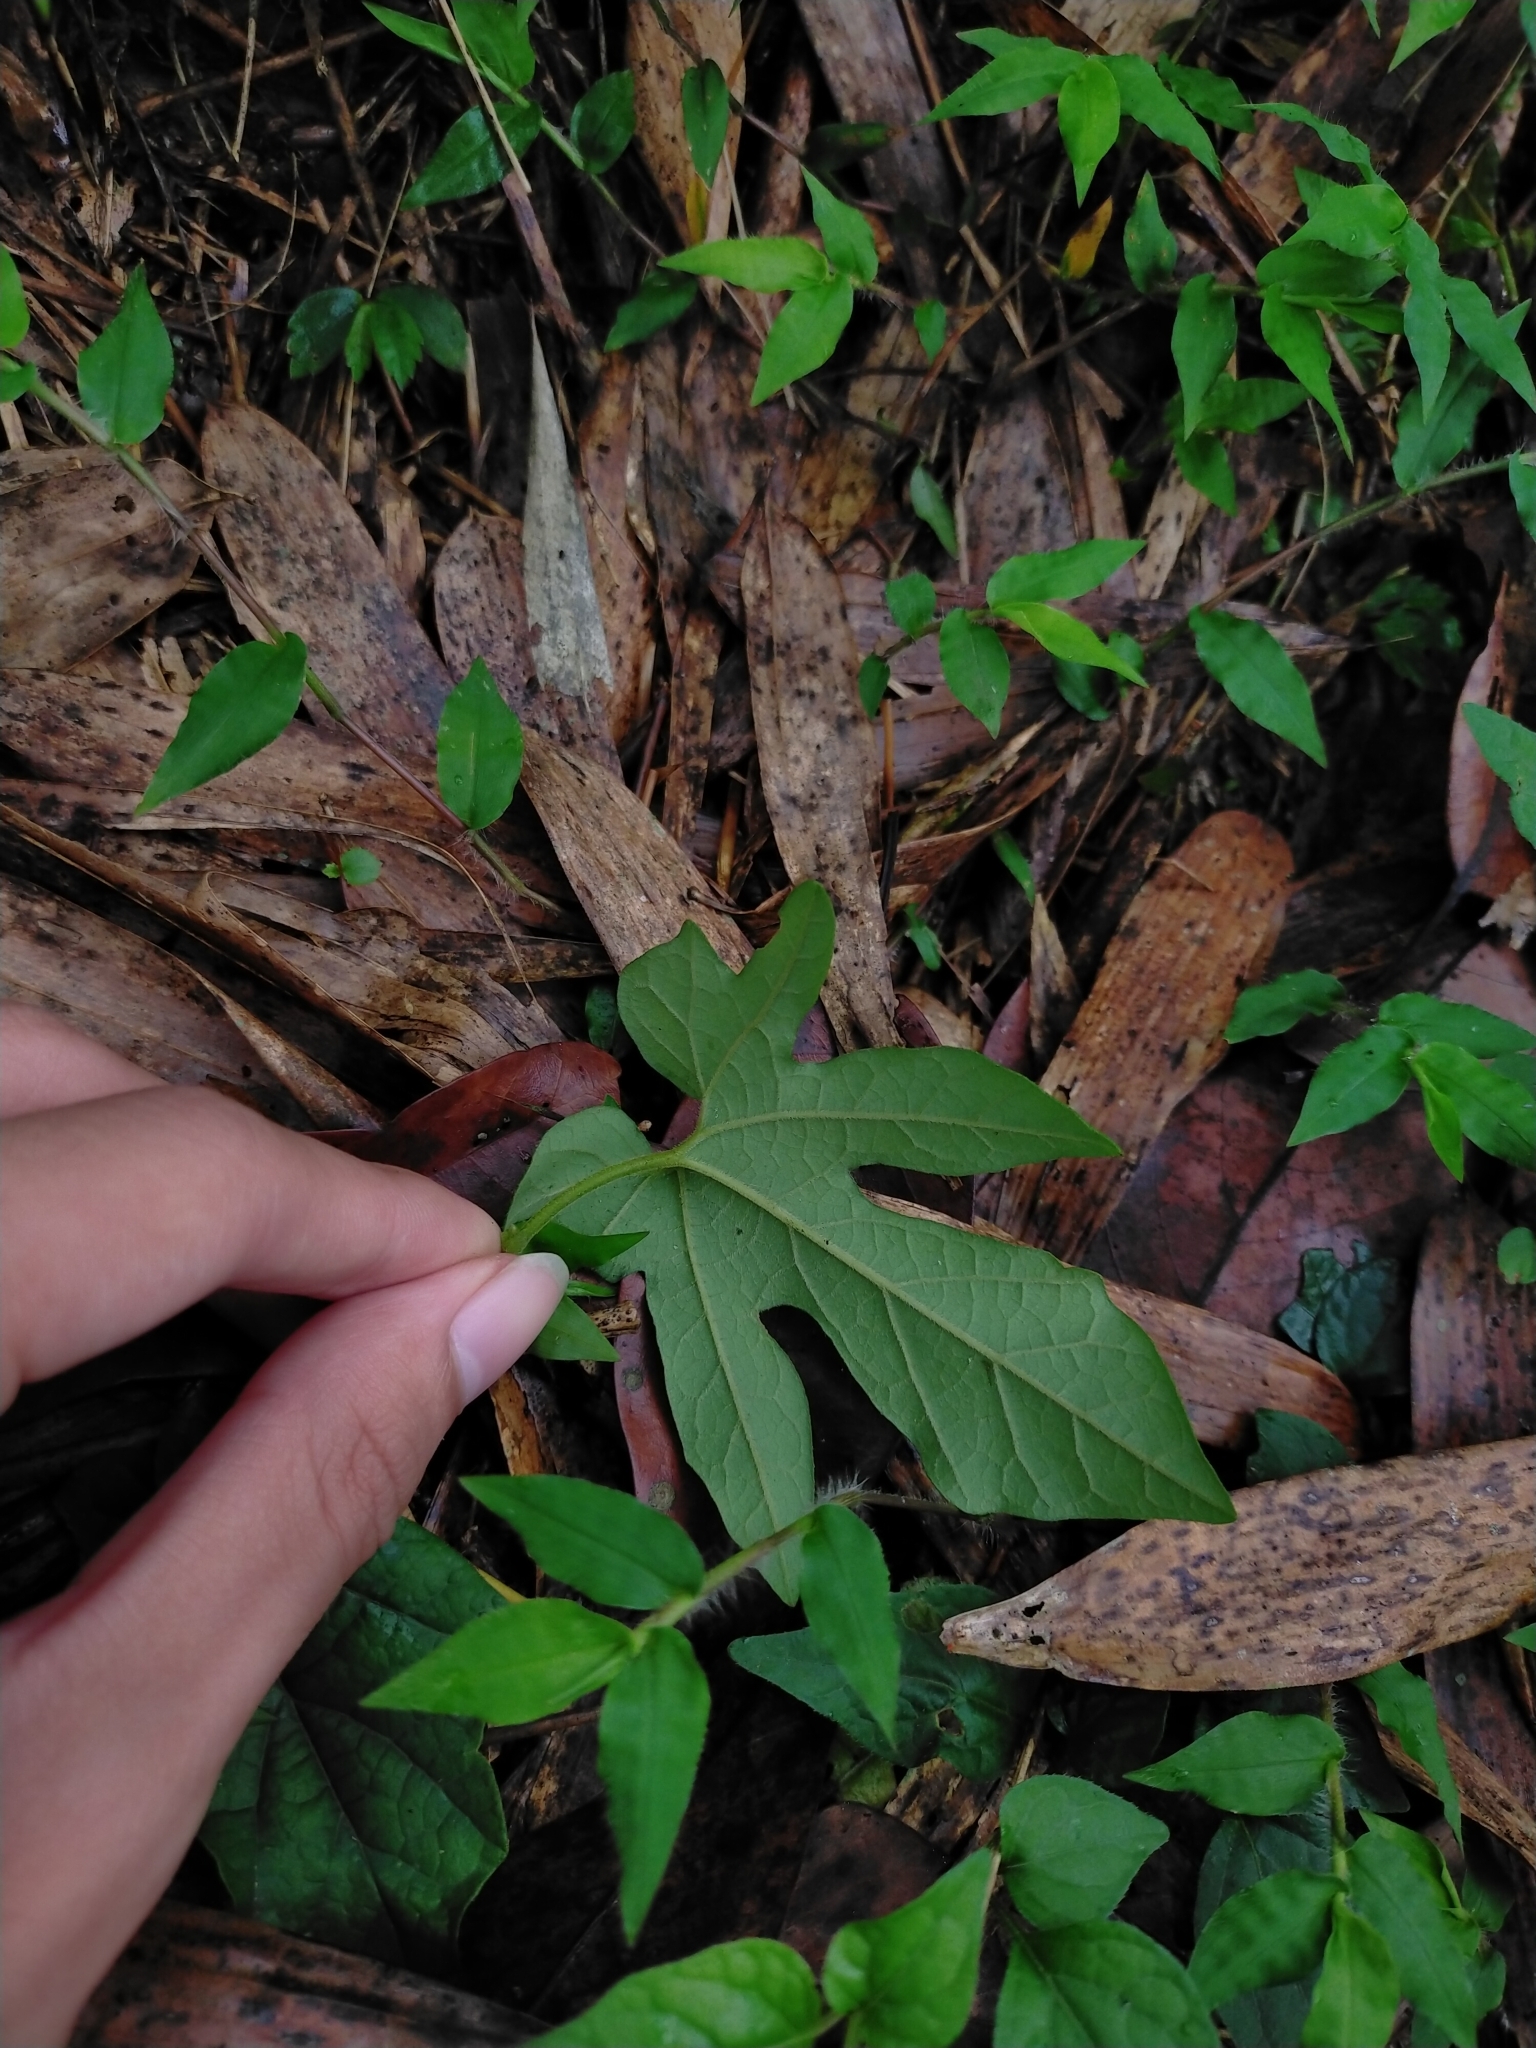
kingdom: Plantae
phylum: Tracheophyta
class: Magnoliopsida
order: Piperales
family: Aristolochiaceae
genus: Isotrema
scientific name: Isotrema cucurbitifolium
